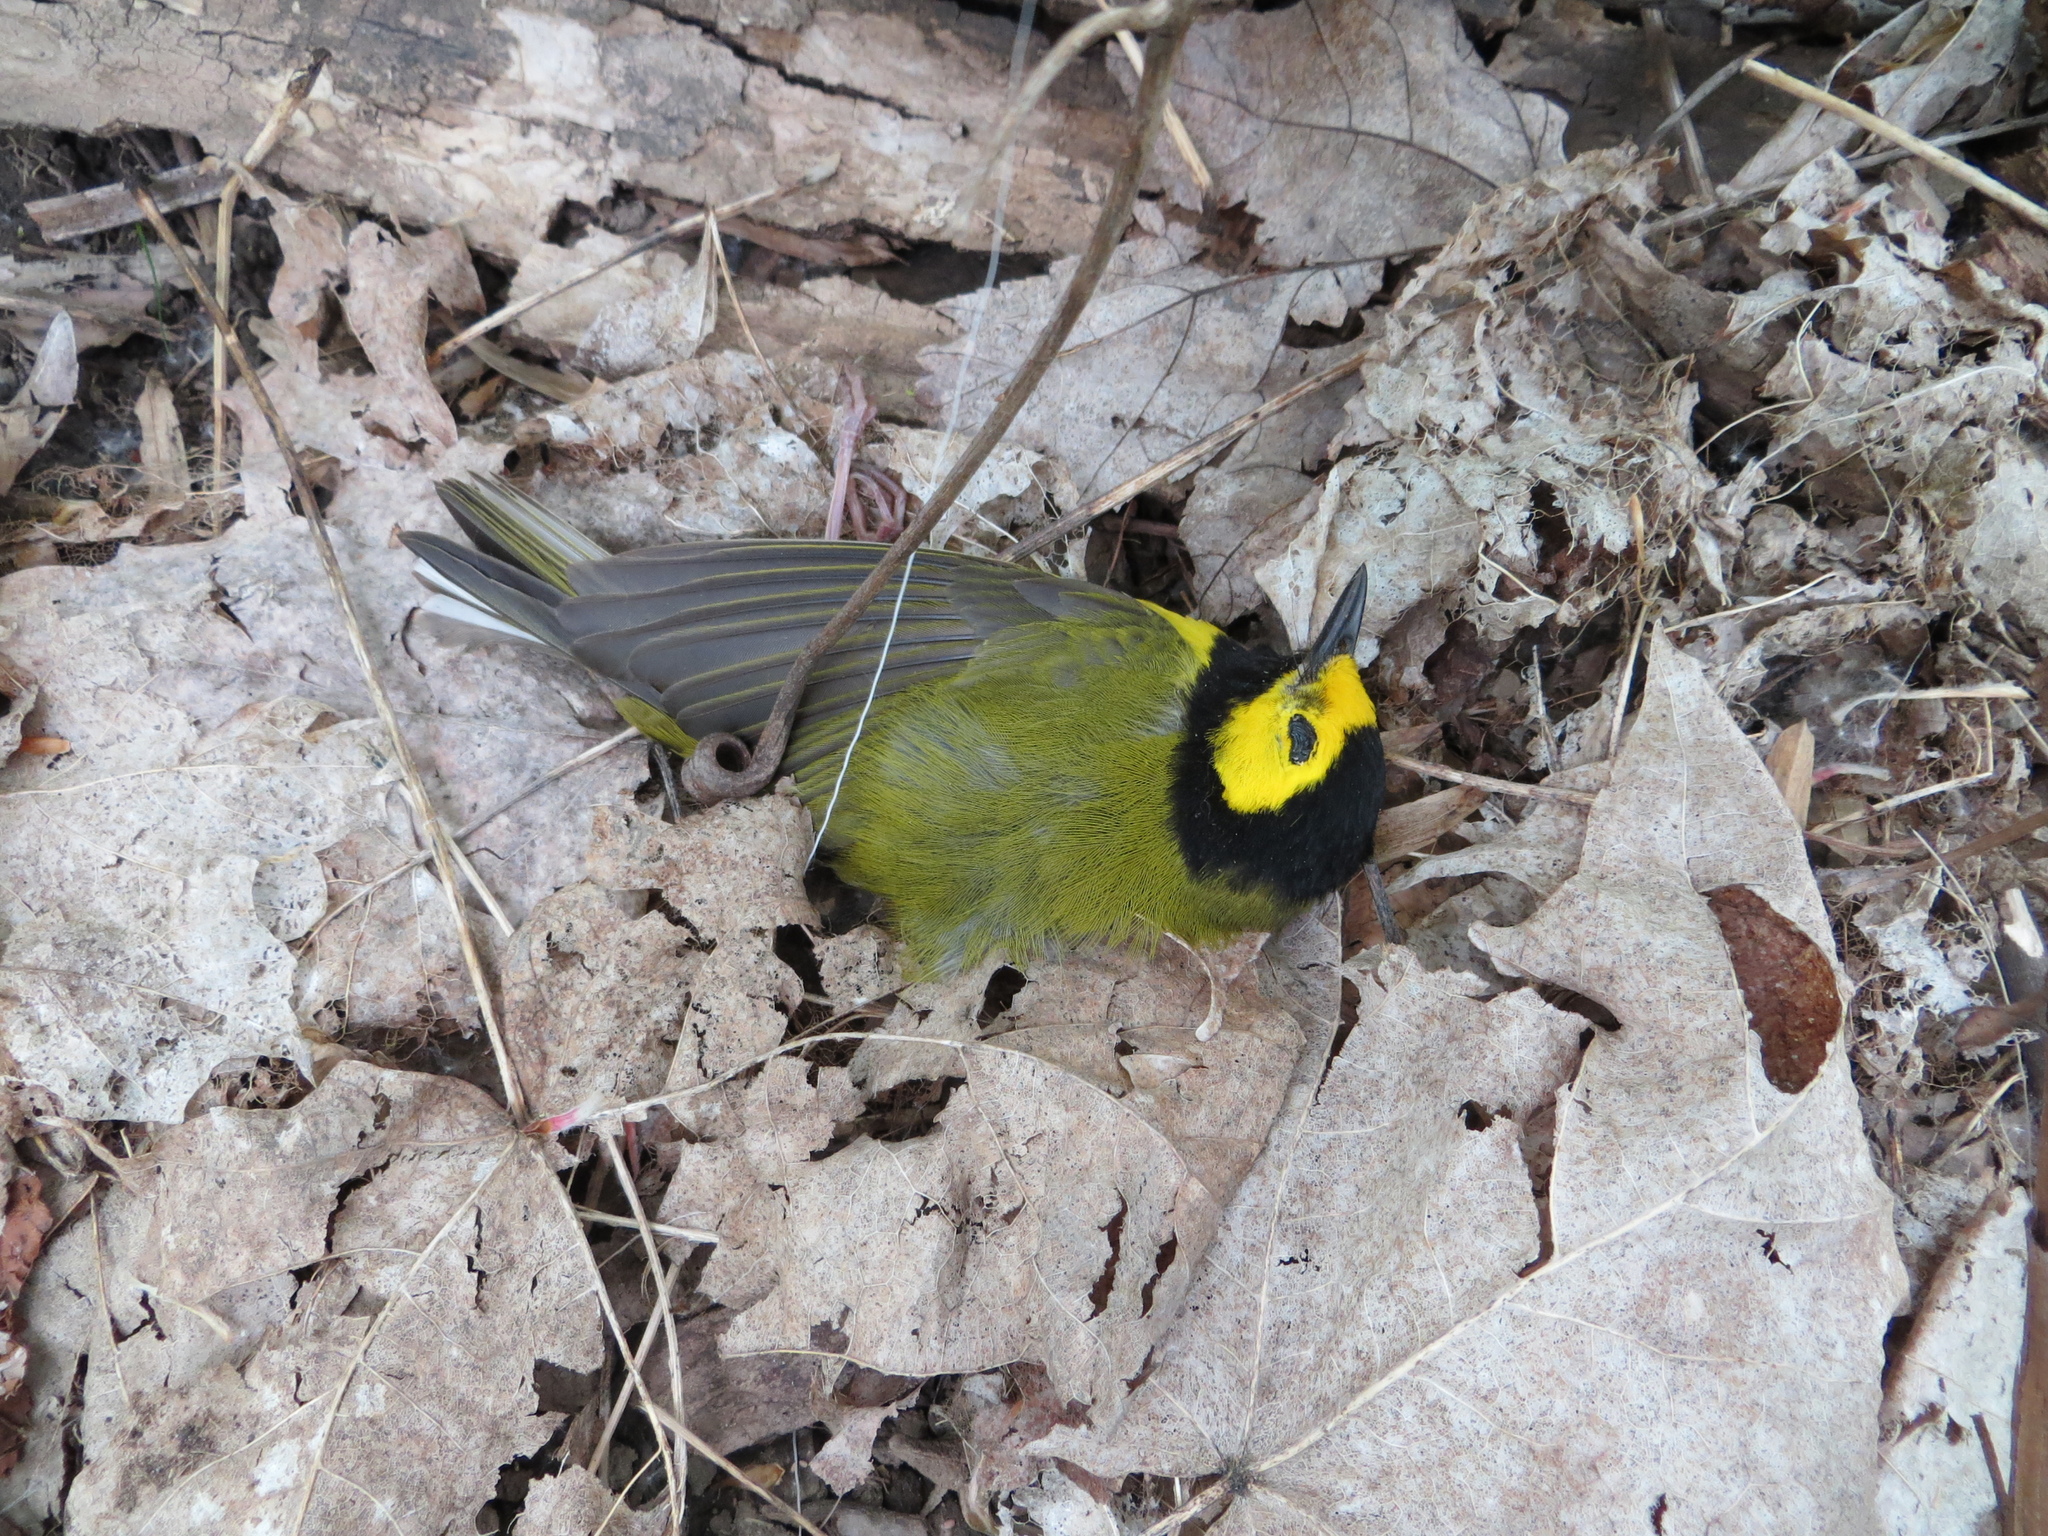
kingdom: Animalia
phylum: Chordata
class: Aves
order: Passeriformes
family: Parulidae
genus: Setophaga
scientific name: Setophaga citrina
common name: Hooded warbler
